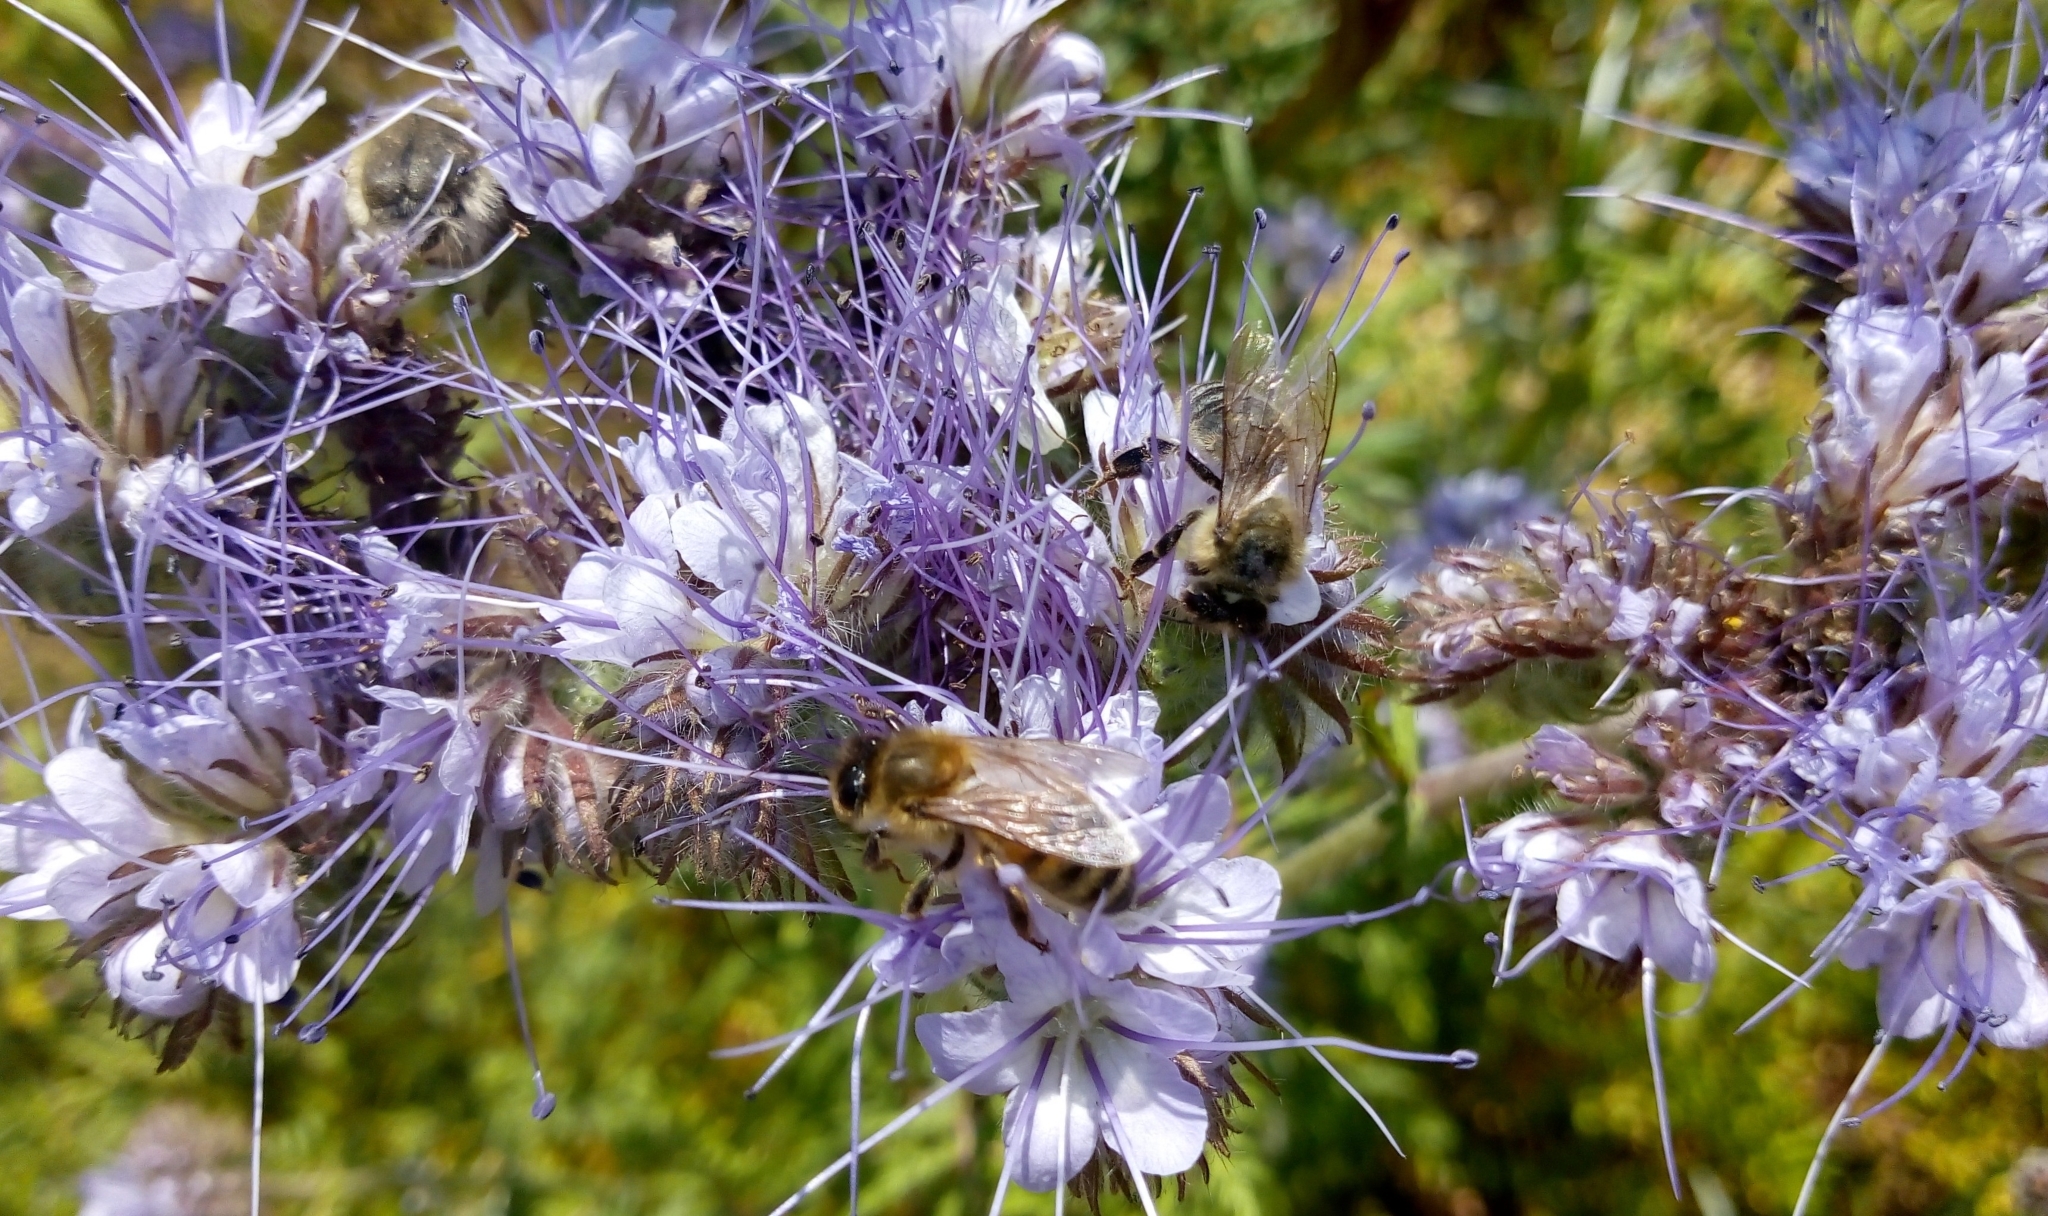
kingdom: Animalia
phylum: Arthropoda
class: Insecta
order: Hymenoptera
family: Apidae
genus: Apis
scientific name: Apis mellifera
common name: Honey bee
